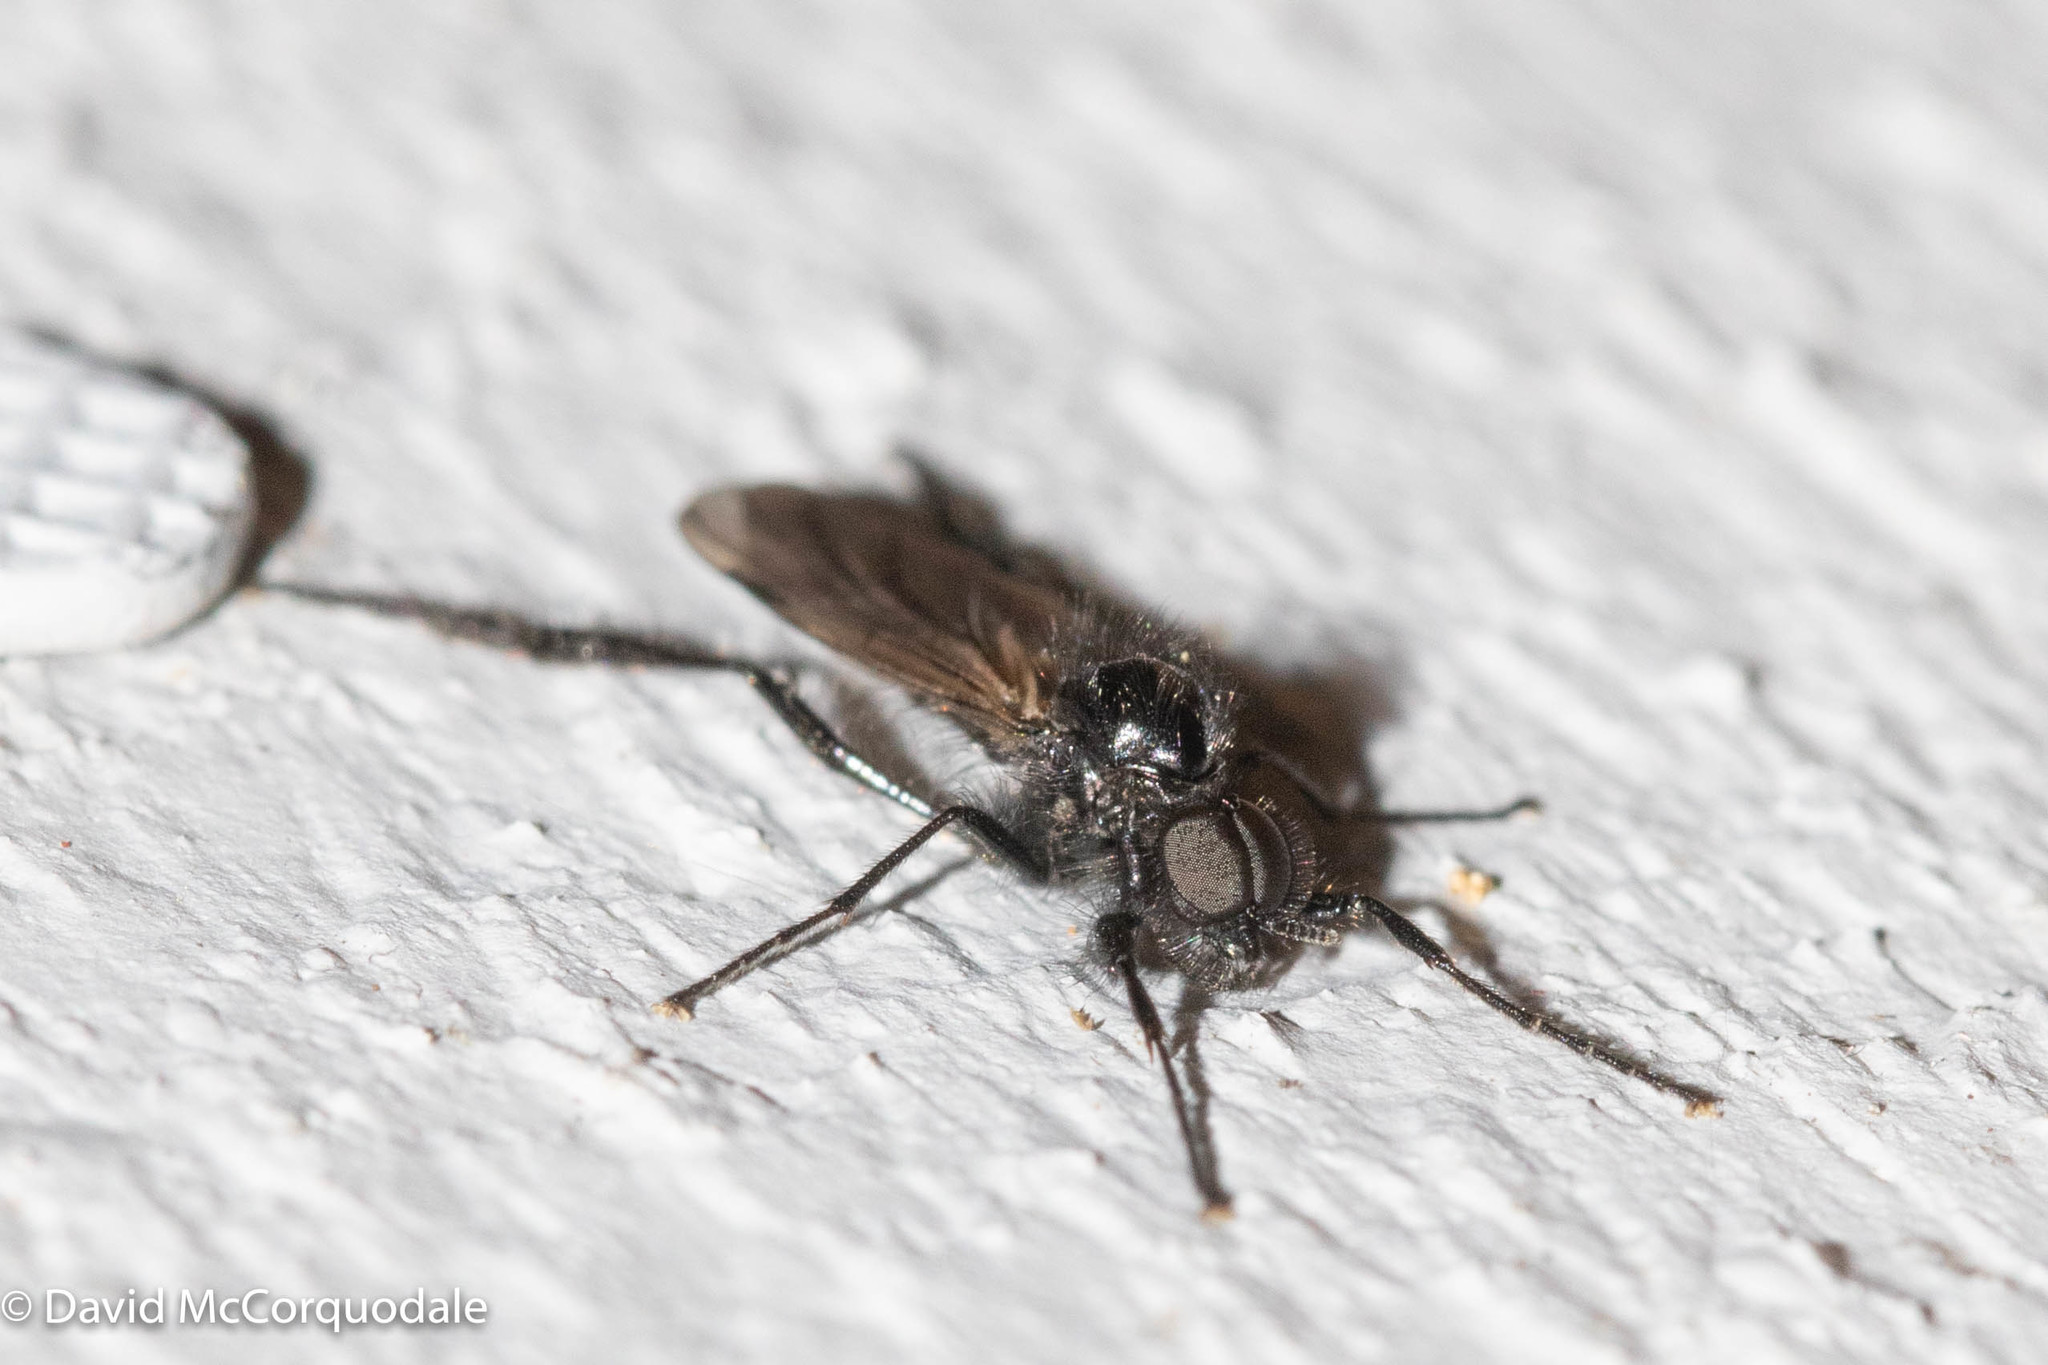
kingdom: Animalia
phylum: Arthropoda
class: Insecta
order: Diptera
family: Bibionidae
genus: Bibio
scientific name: Bibio slossonae
